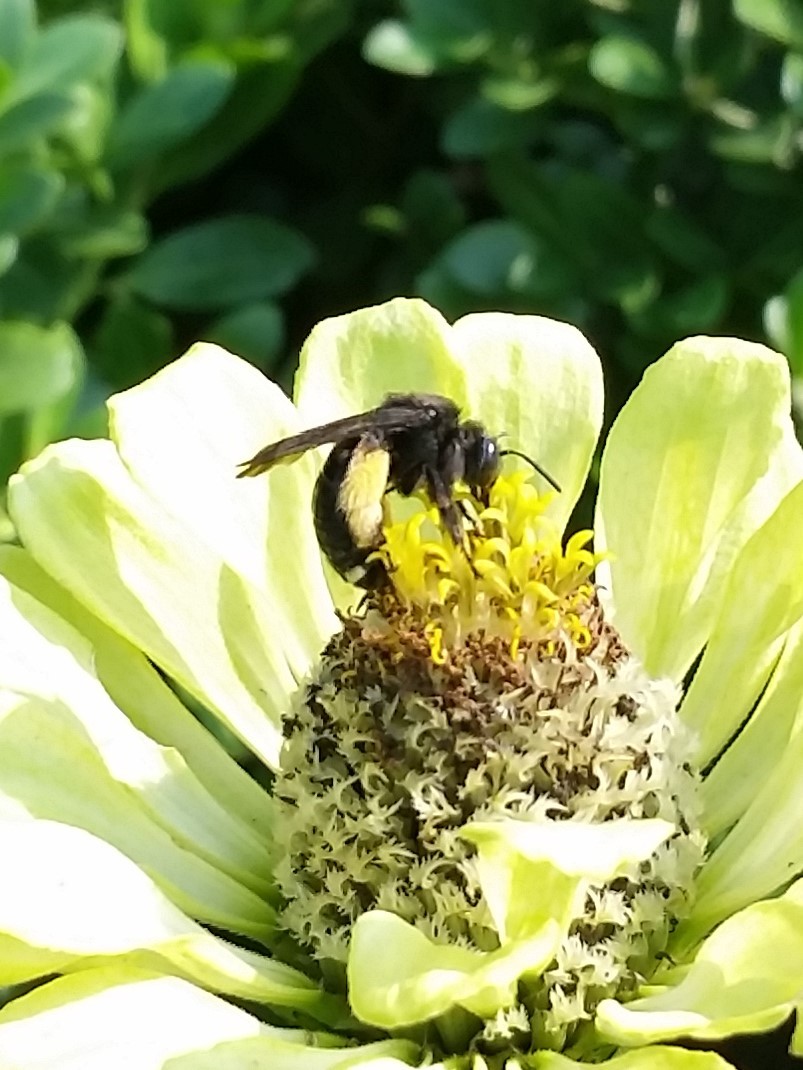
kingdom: Animalia
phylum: Arthropoda
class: Insecta
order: Hymenoptera
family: Apidae
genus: Melissodes
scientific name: Melissodes bimaculatus
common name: Two-spotted long-horned bee
